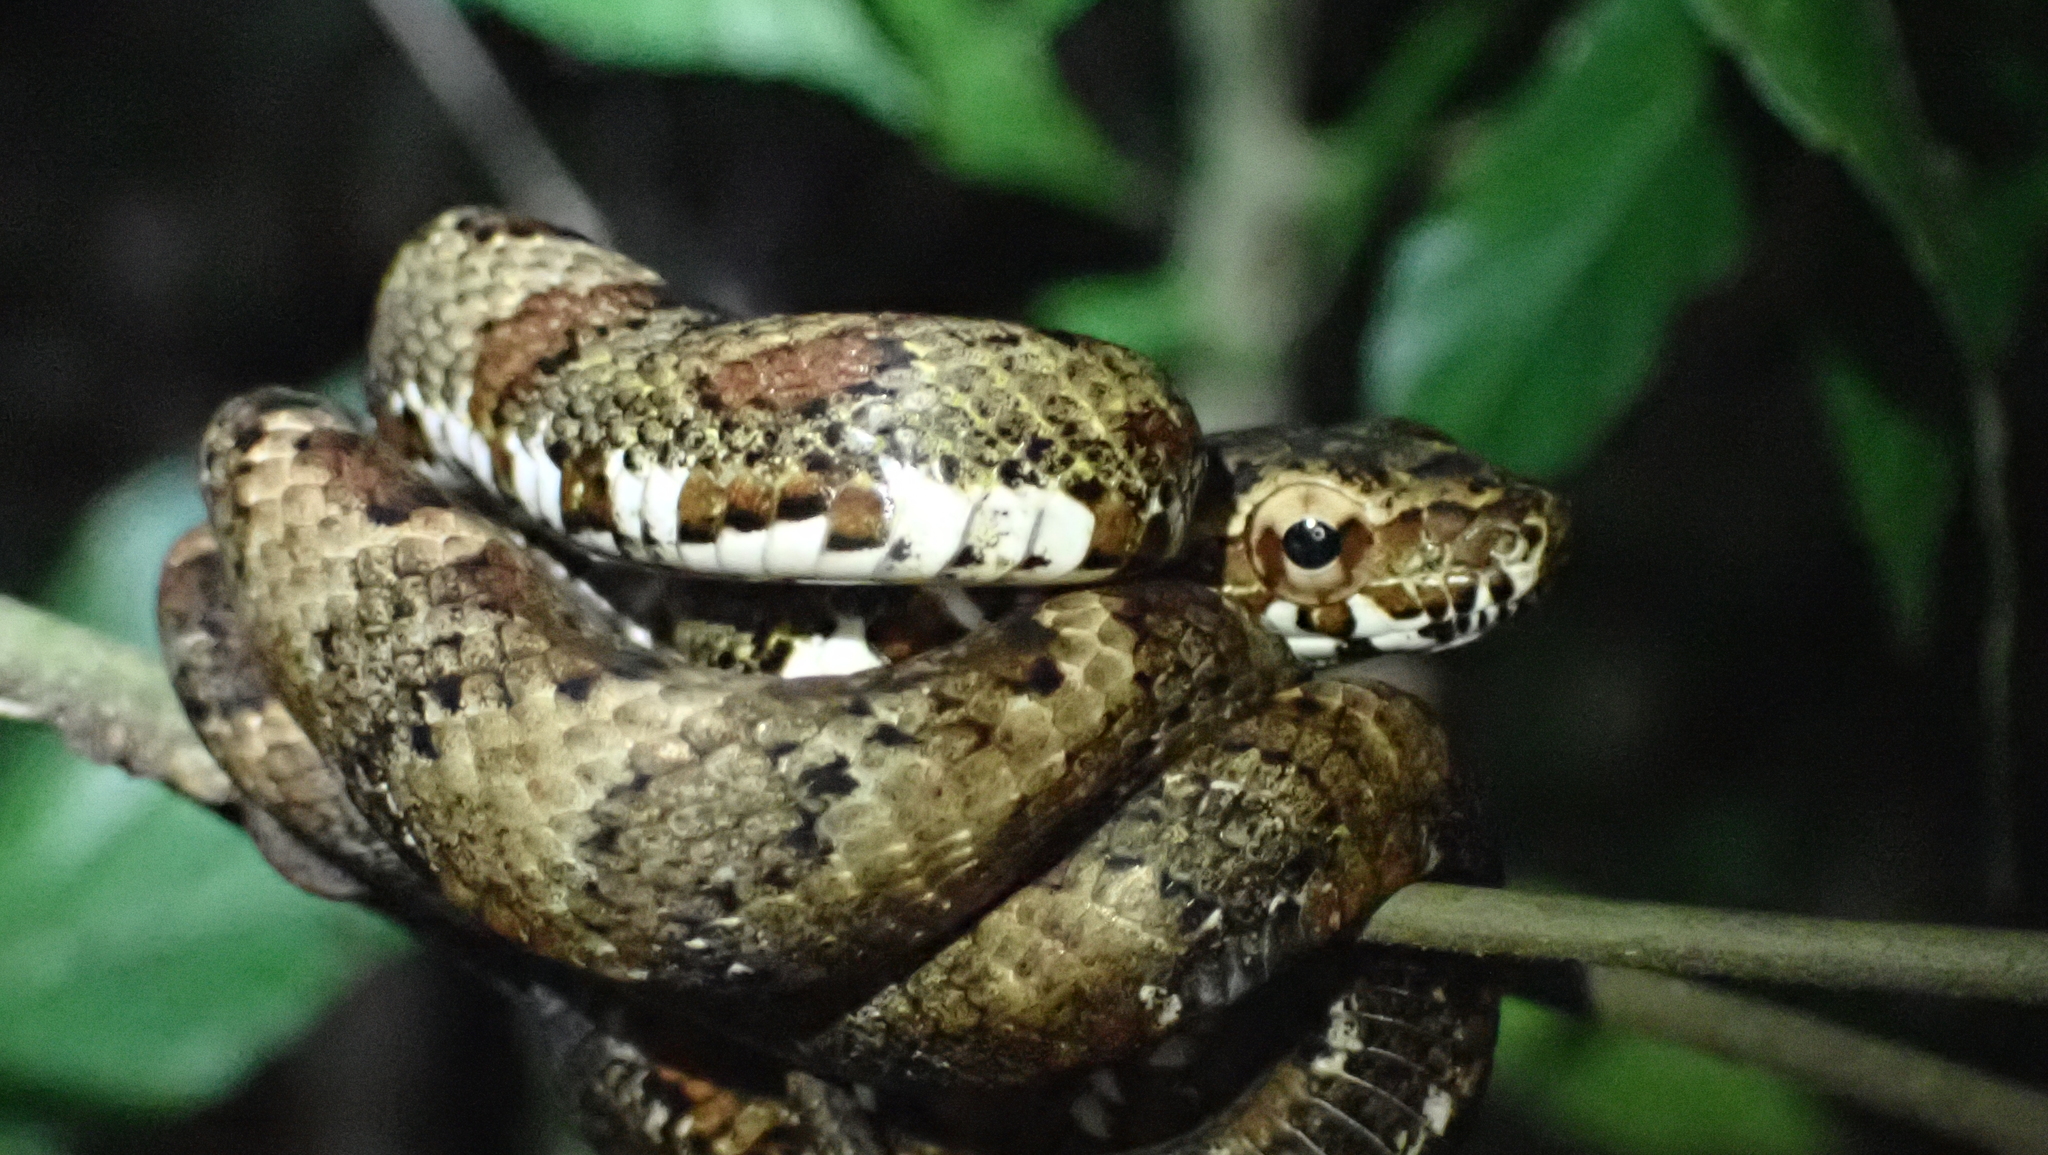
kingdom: Animalia
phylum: Chordata
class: Squamata
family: Colubridae
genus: Phrynonax
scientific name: Phrynonax poecilonotus
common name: Puffing snake
